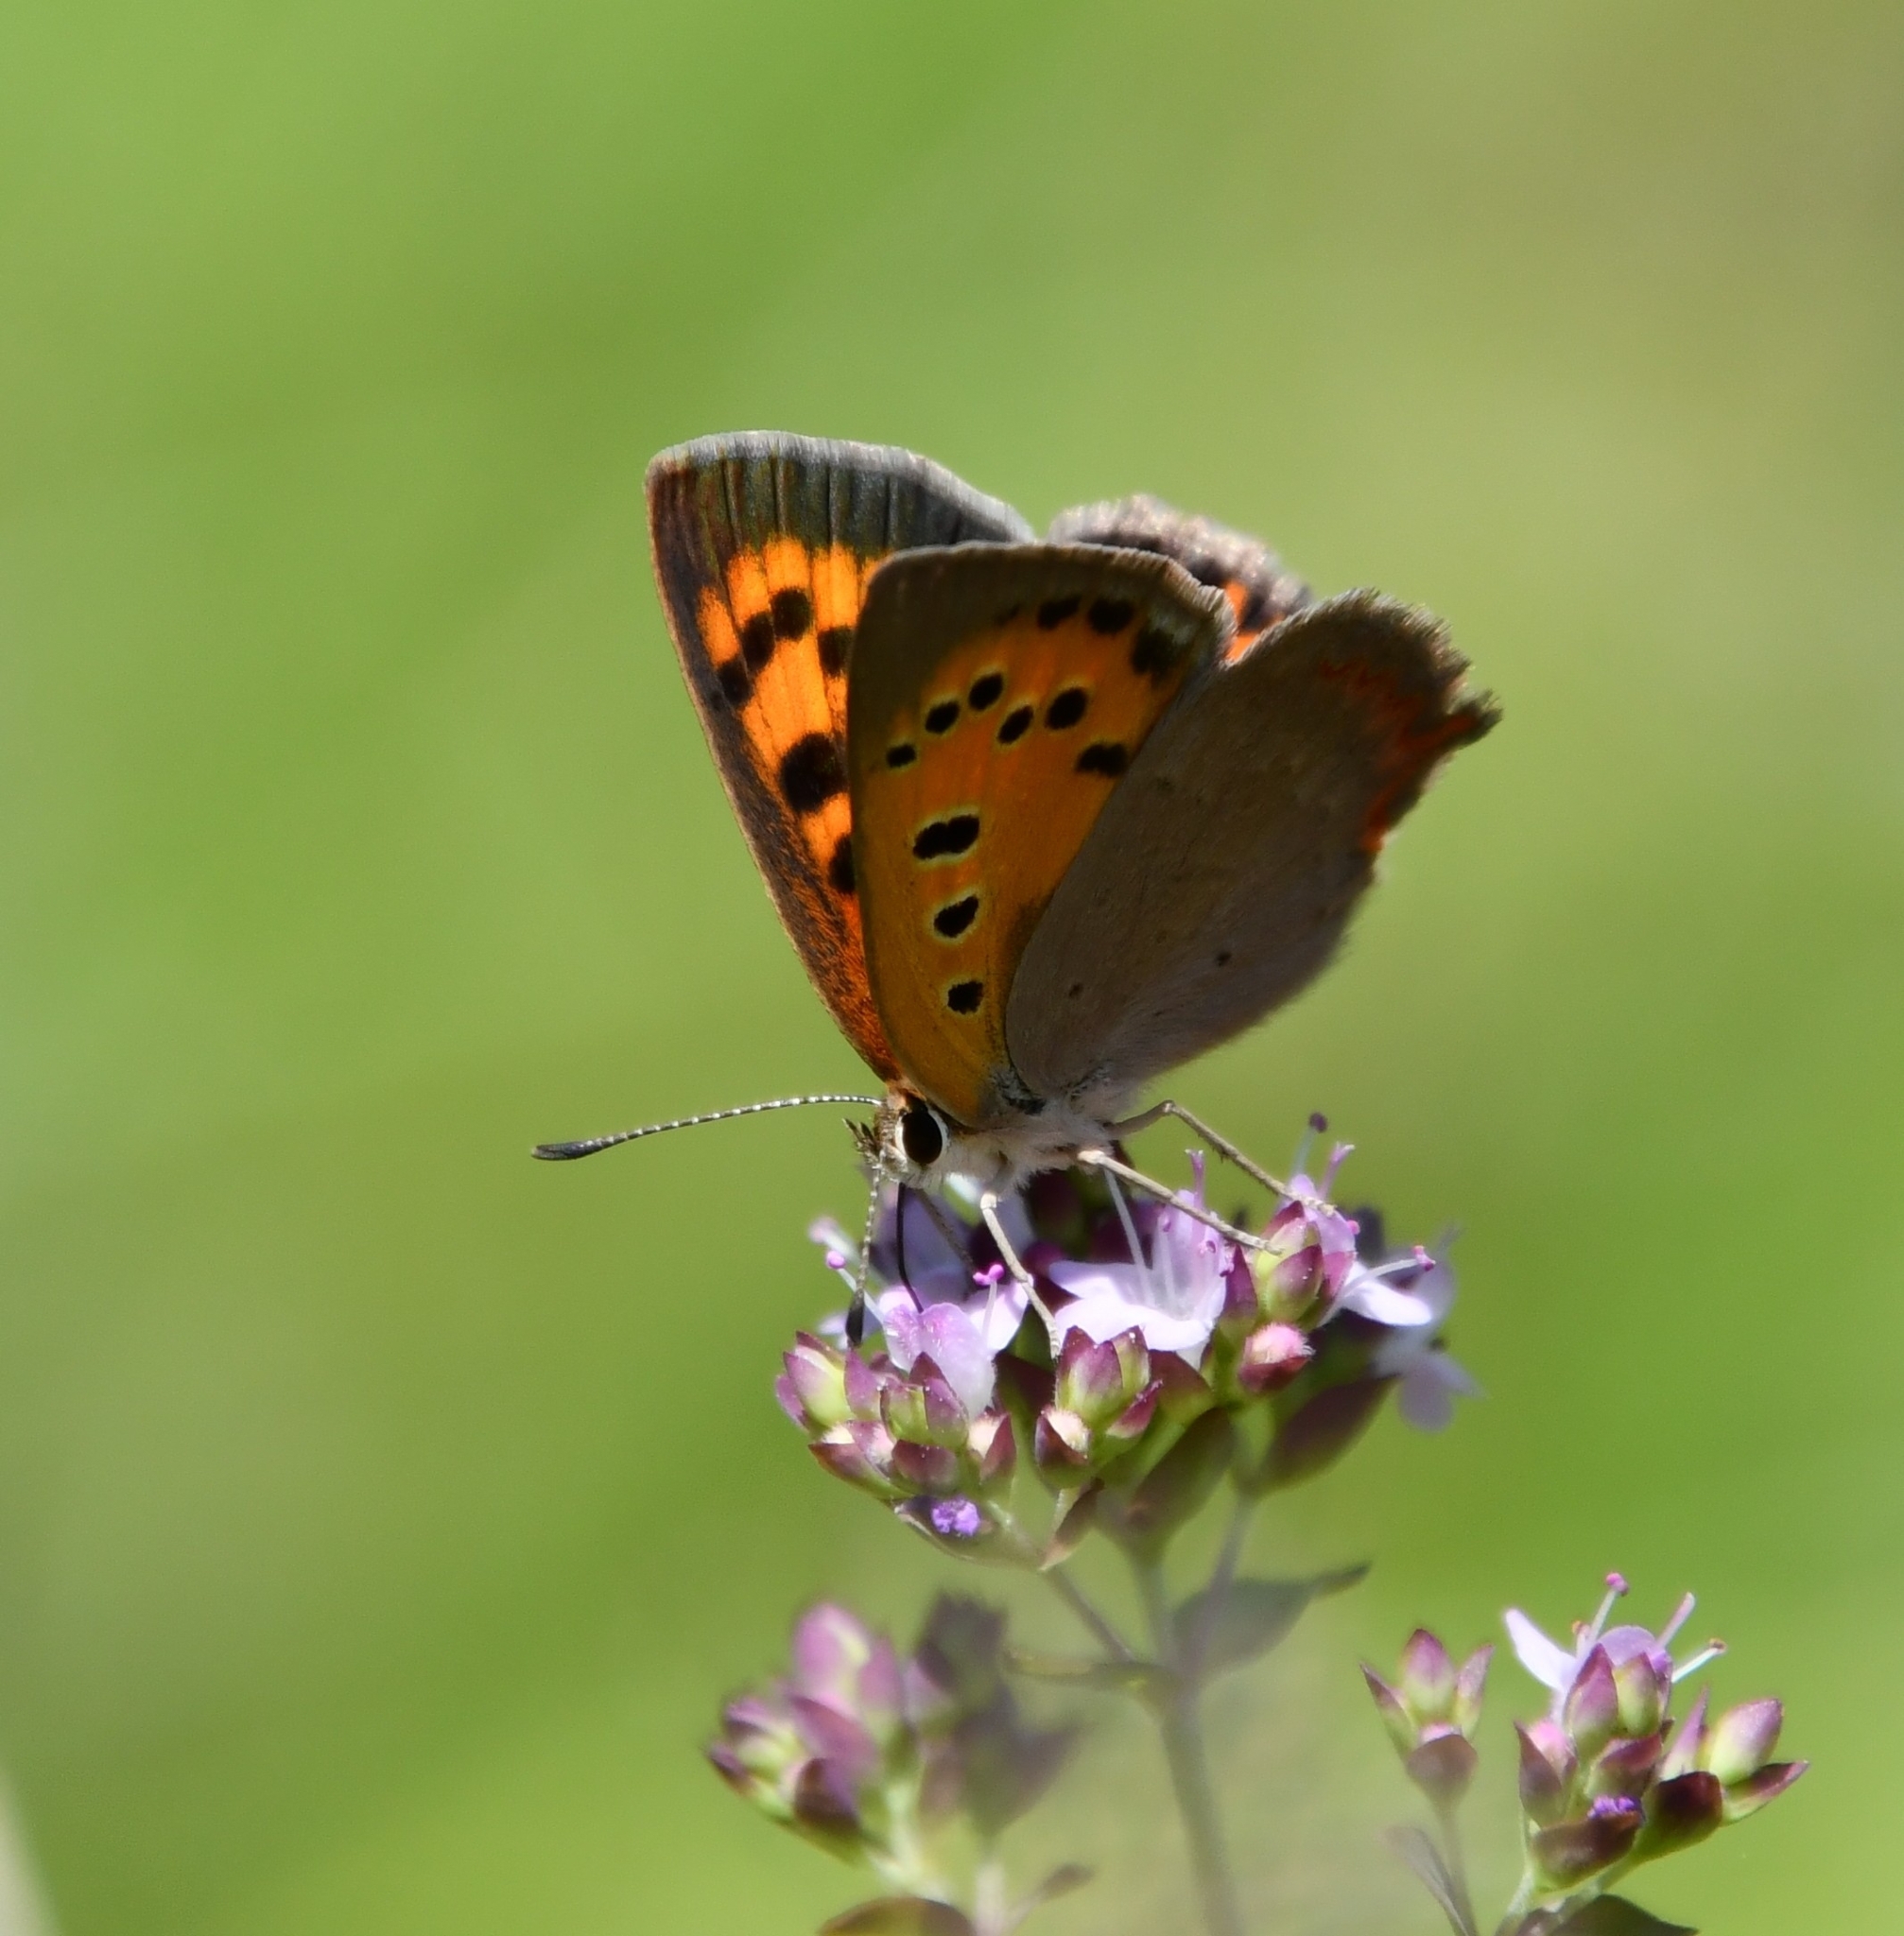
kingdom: Animalia
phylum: Arthropoda
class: Insecta
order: Lepidoptera
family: Lycaenidae
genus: Lycaena
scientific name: Lycaena phlaeas
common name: Small copper
